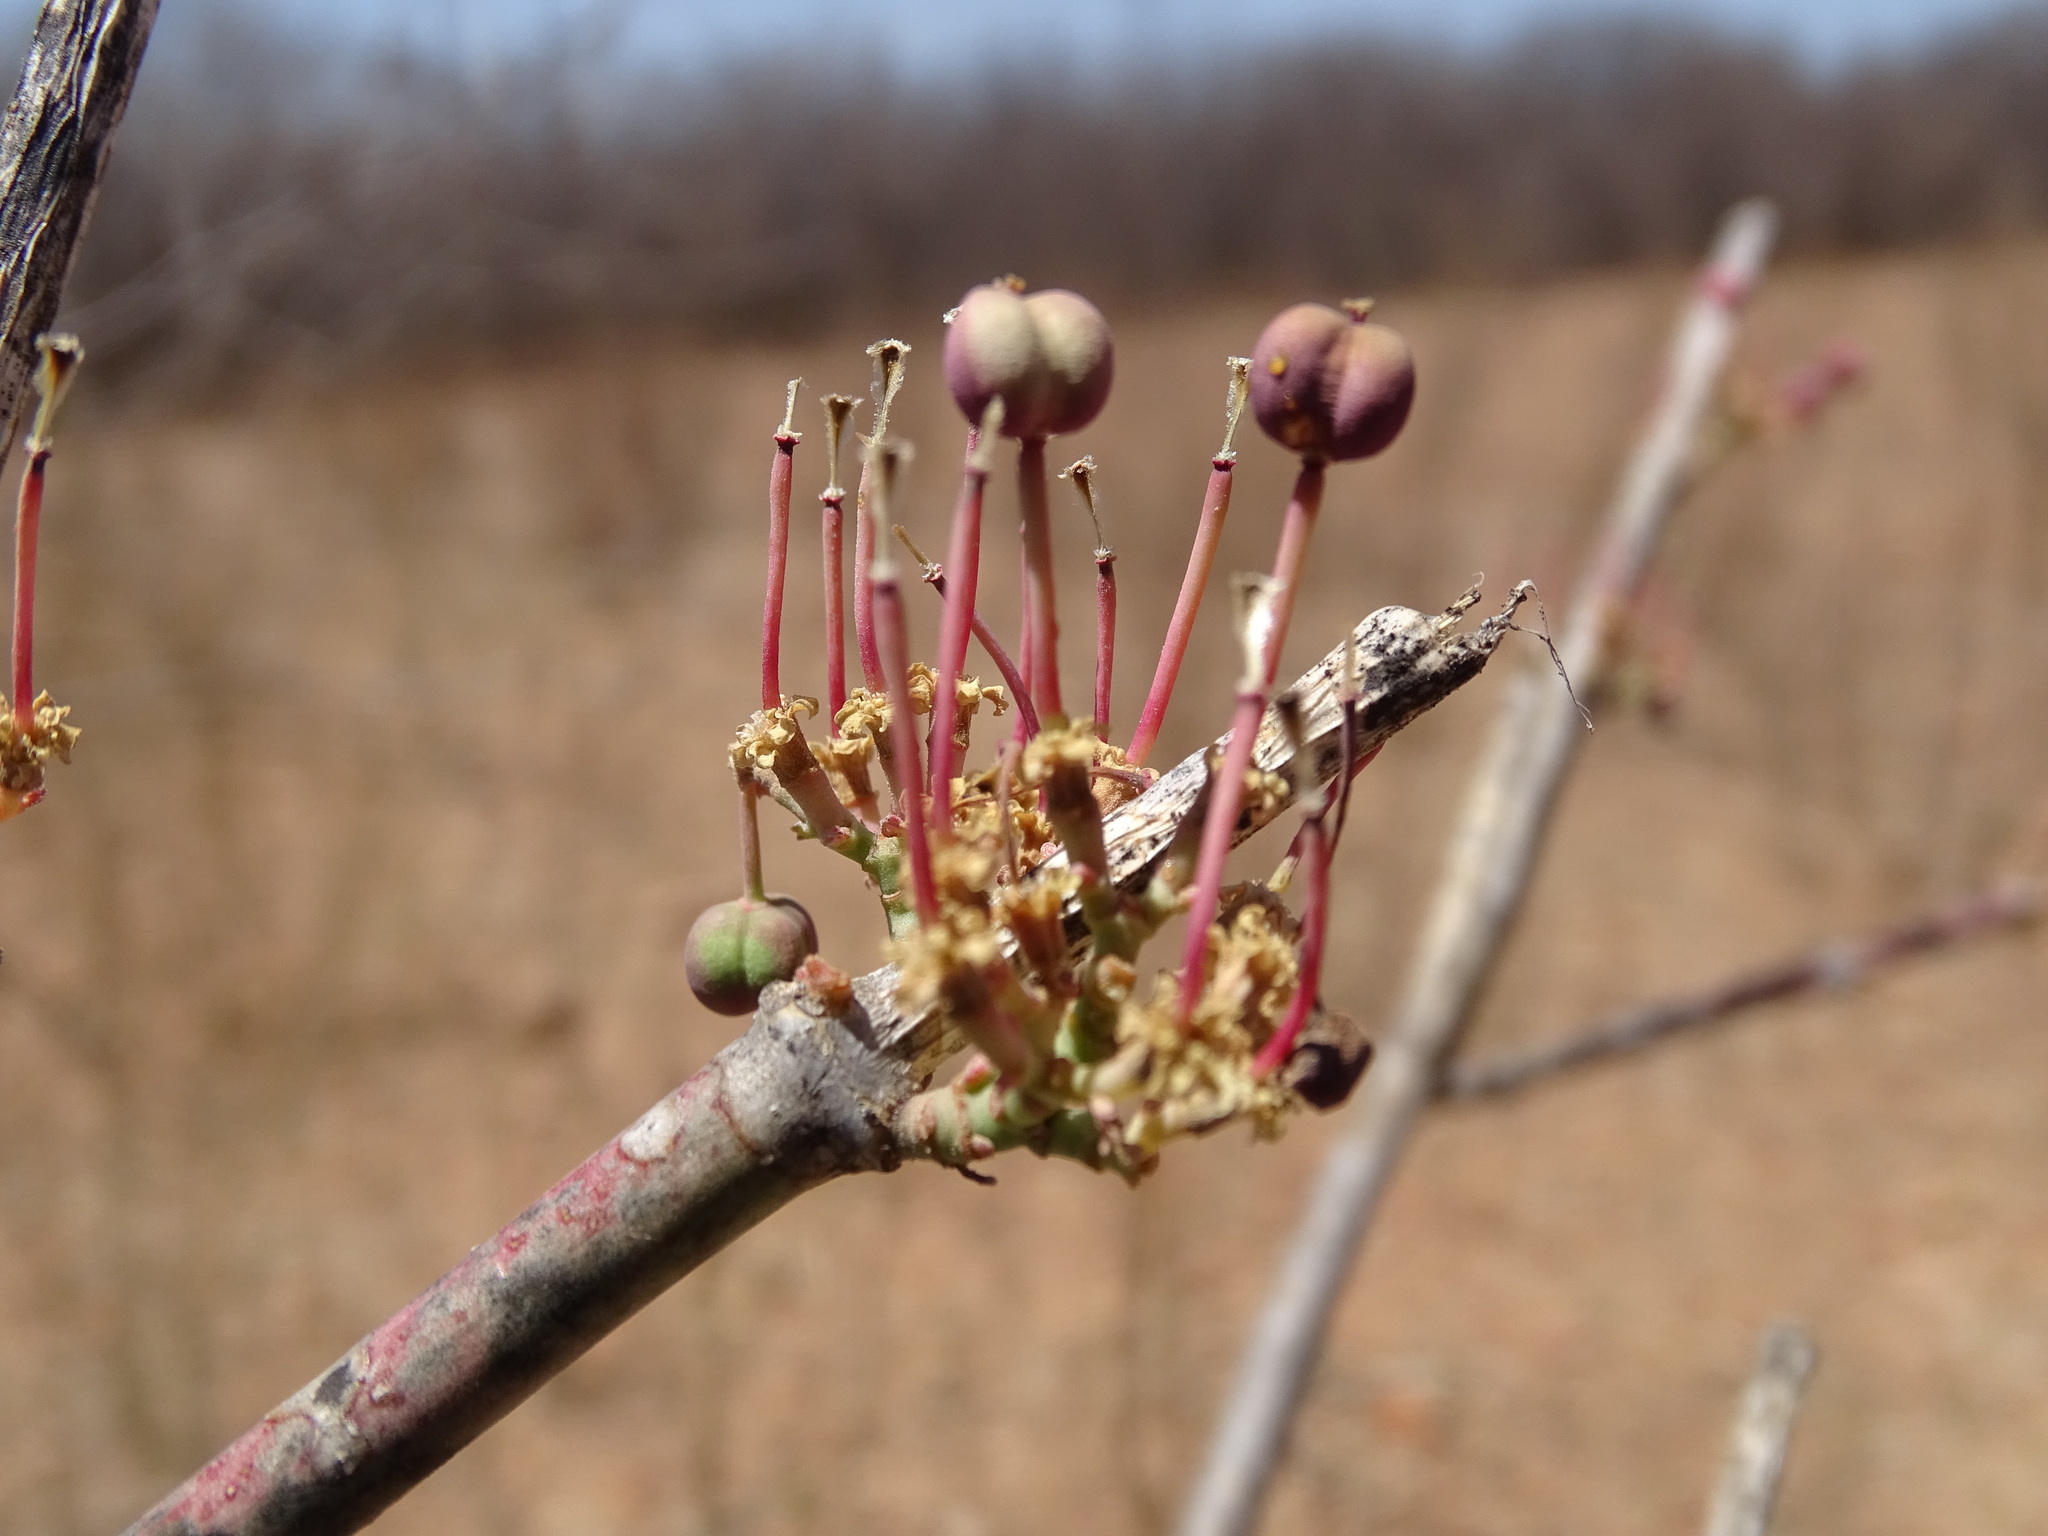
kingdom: Plantae
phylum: Tracheophyta
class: Magnoliopsida
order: Malpighiales
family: Euphorbiaceae
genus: Euphorbia
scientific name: Euphorbia cymosa
